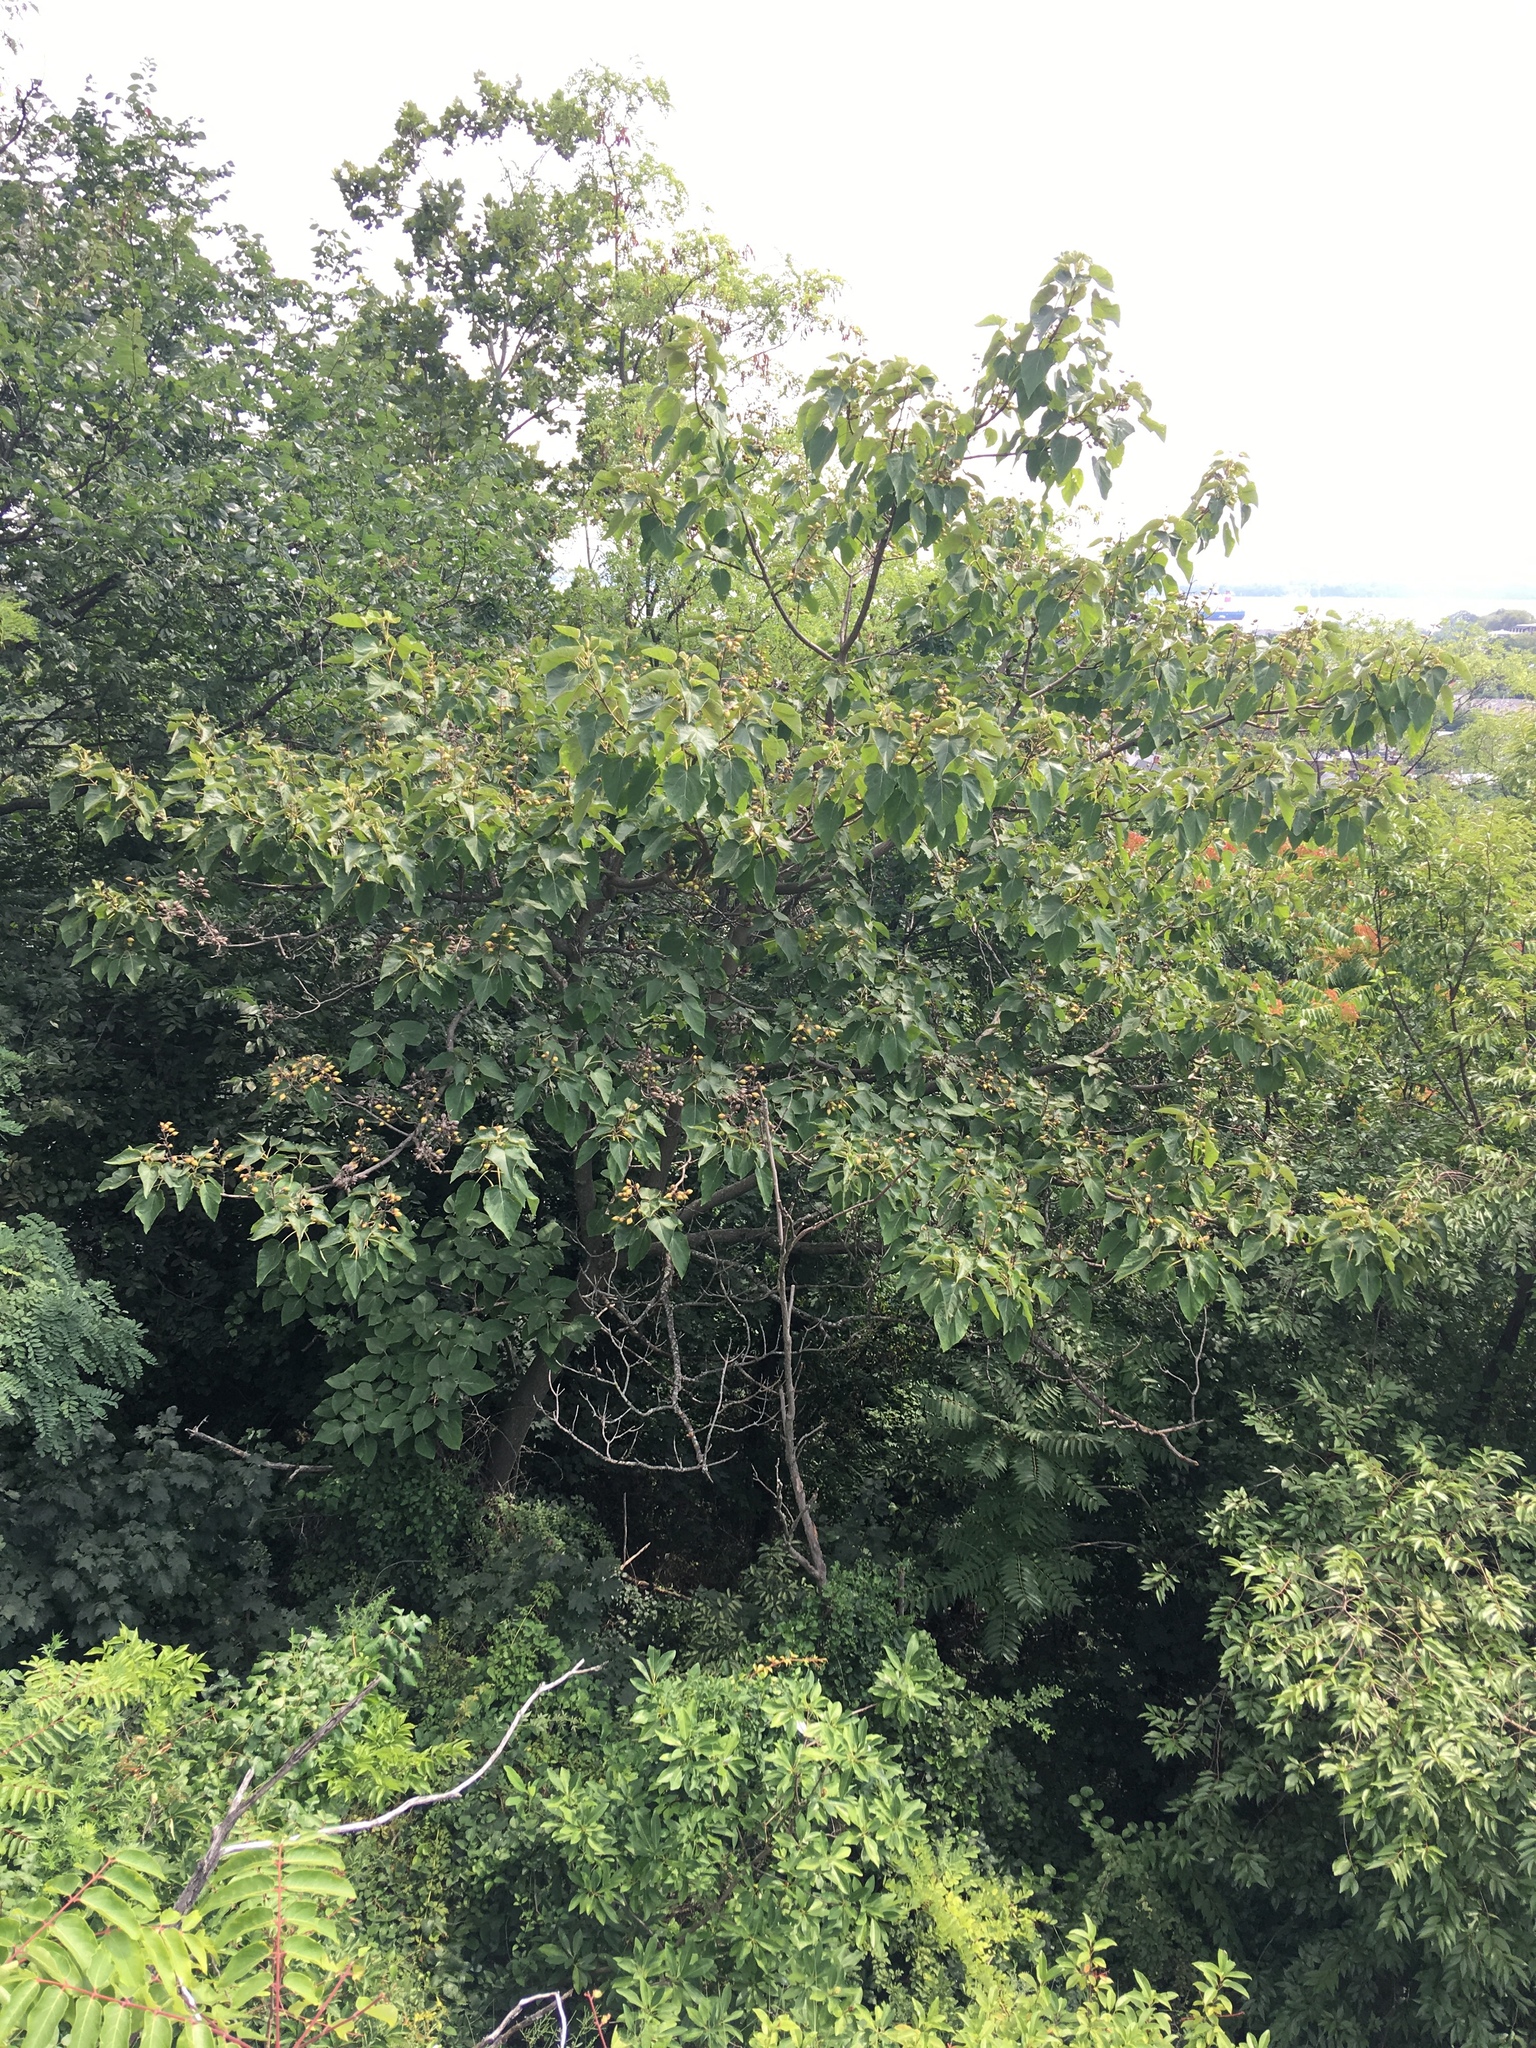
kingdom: Plantae
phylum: Tracheophyta
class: Magnoliopsida
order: Lamiales
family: Paulowniaceae
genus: Paulownia
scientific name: Paulownia tomentosa
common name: Foxglove-tree
